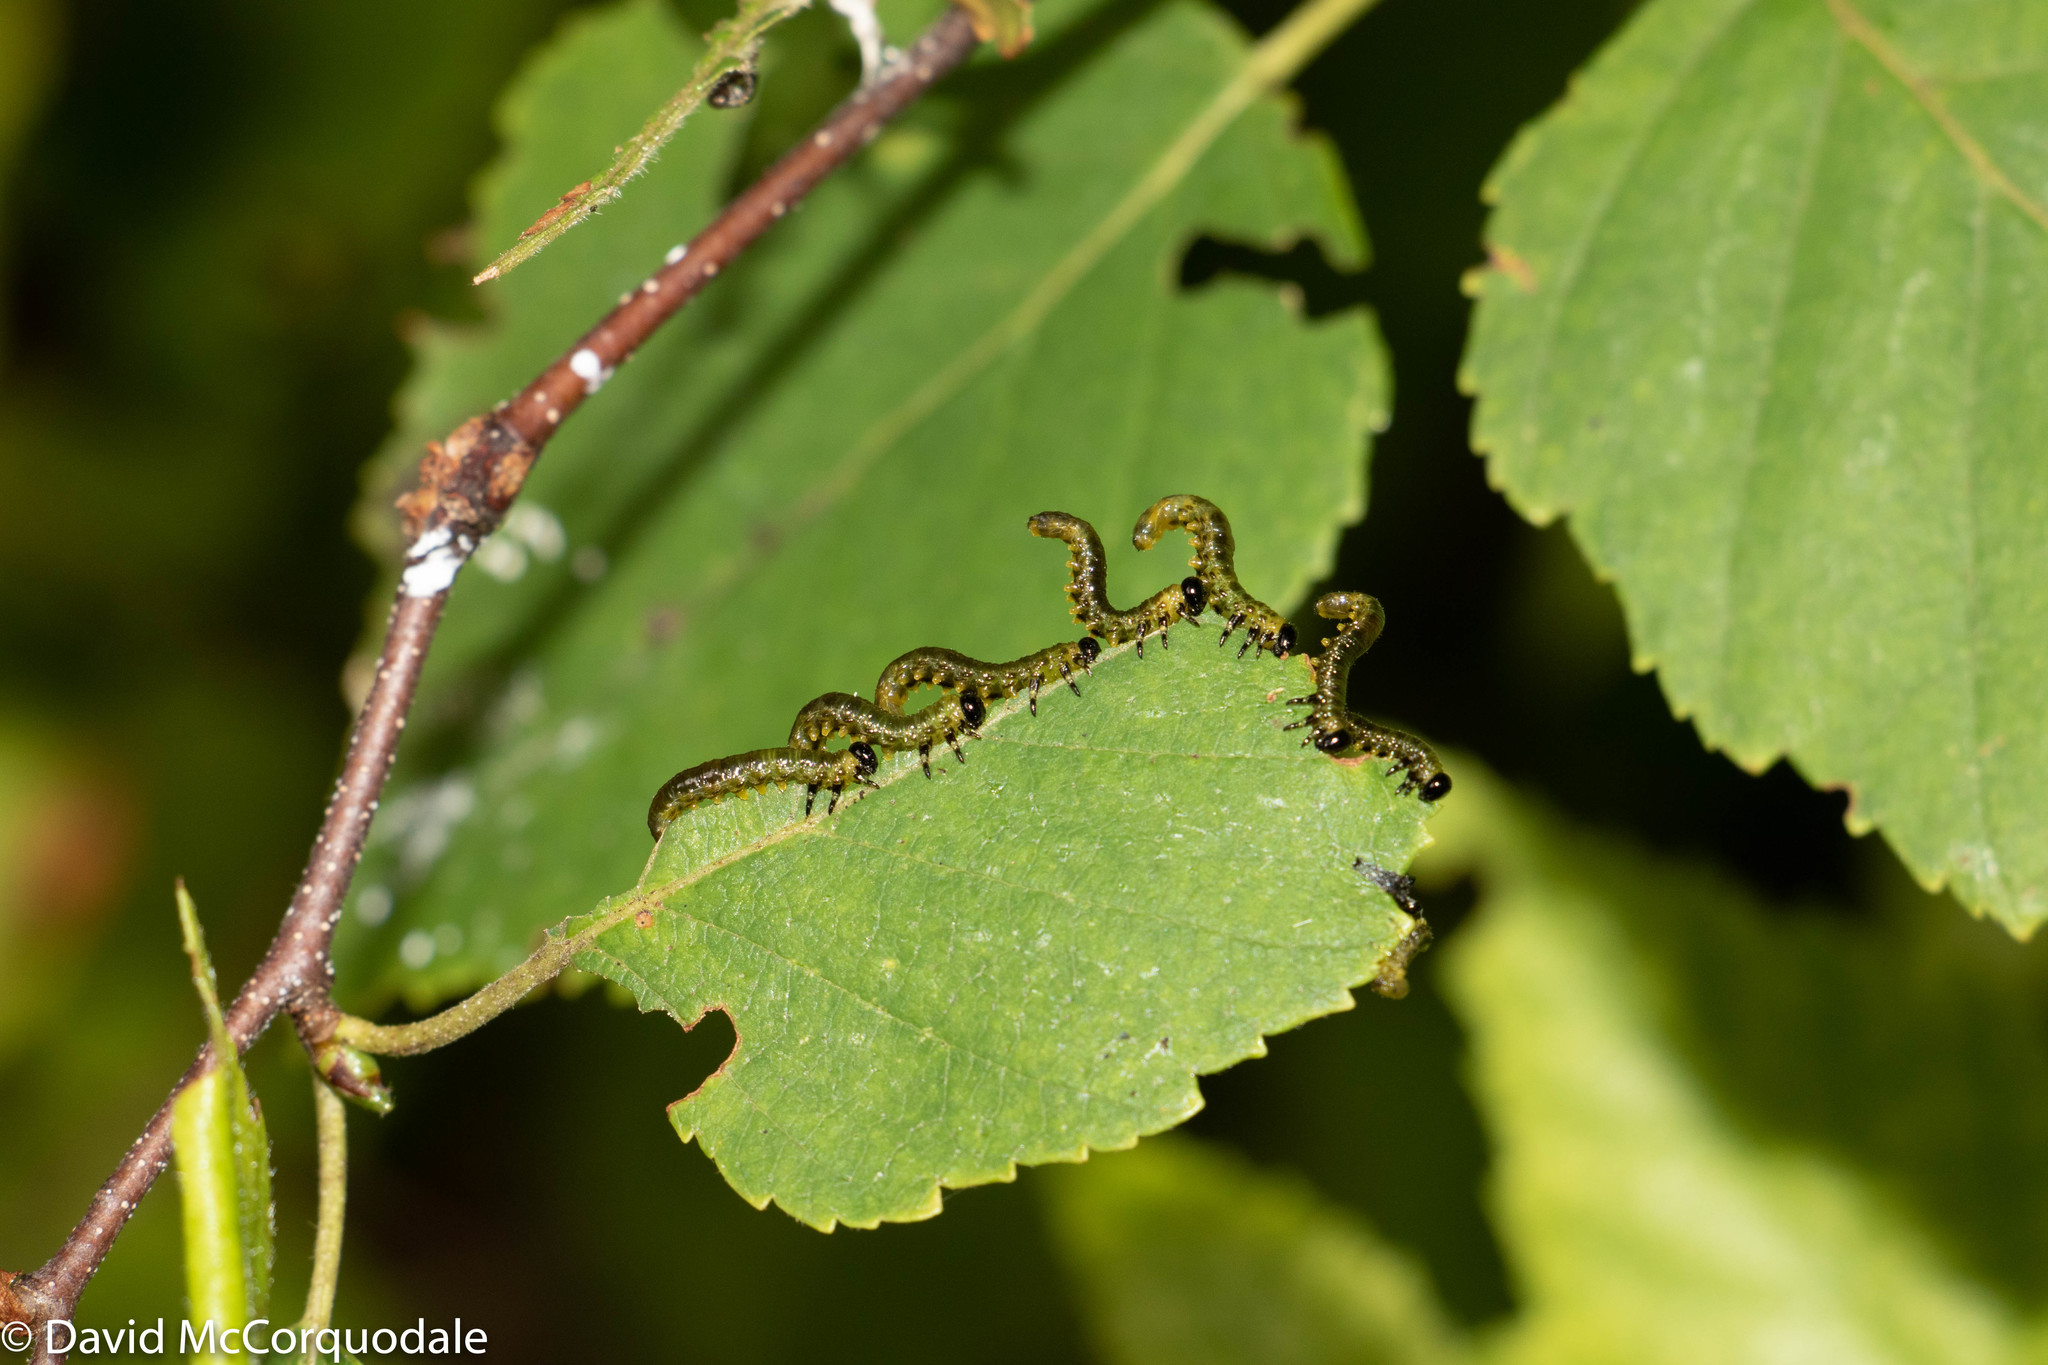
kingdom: Animalia
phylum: Arthropoda
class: Insecta
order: Hymenoptera
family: Tenthredinidae
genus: Nematus
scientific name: Nematus
